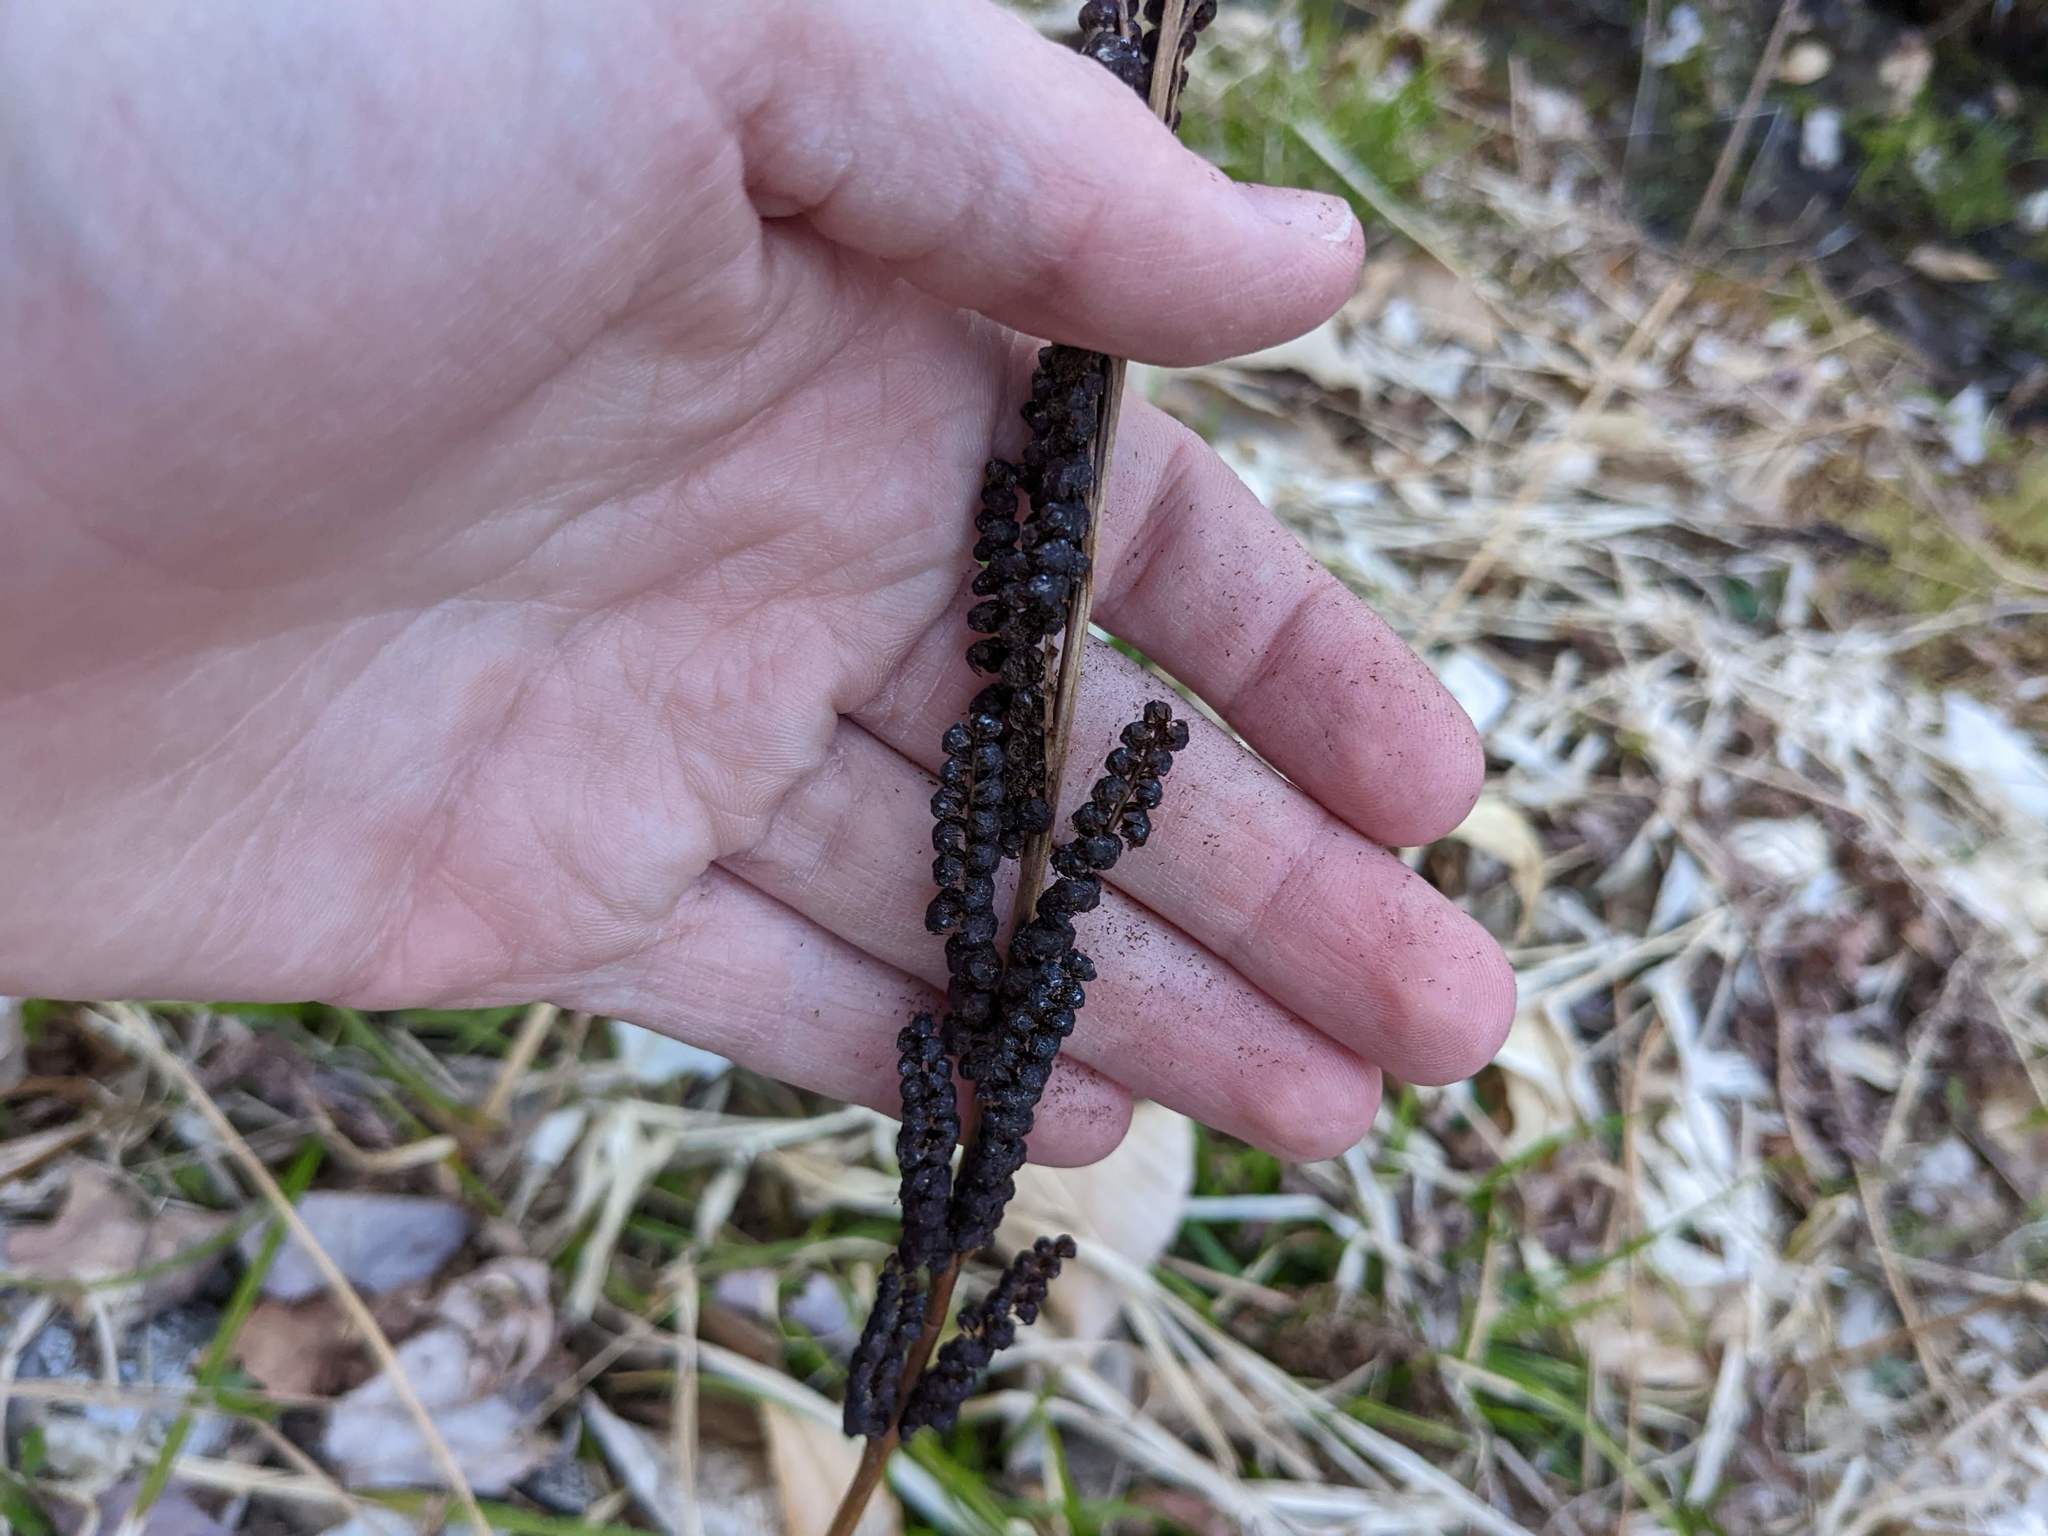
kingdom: Plantae
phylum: Tracheophyta
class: Polypodiopsida
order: Polypodiales
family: Onocleaceae
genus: Onoclea
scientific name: Onoclea sensibilis
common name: Sensitive fern
